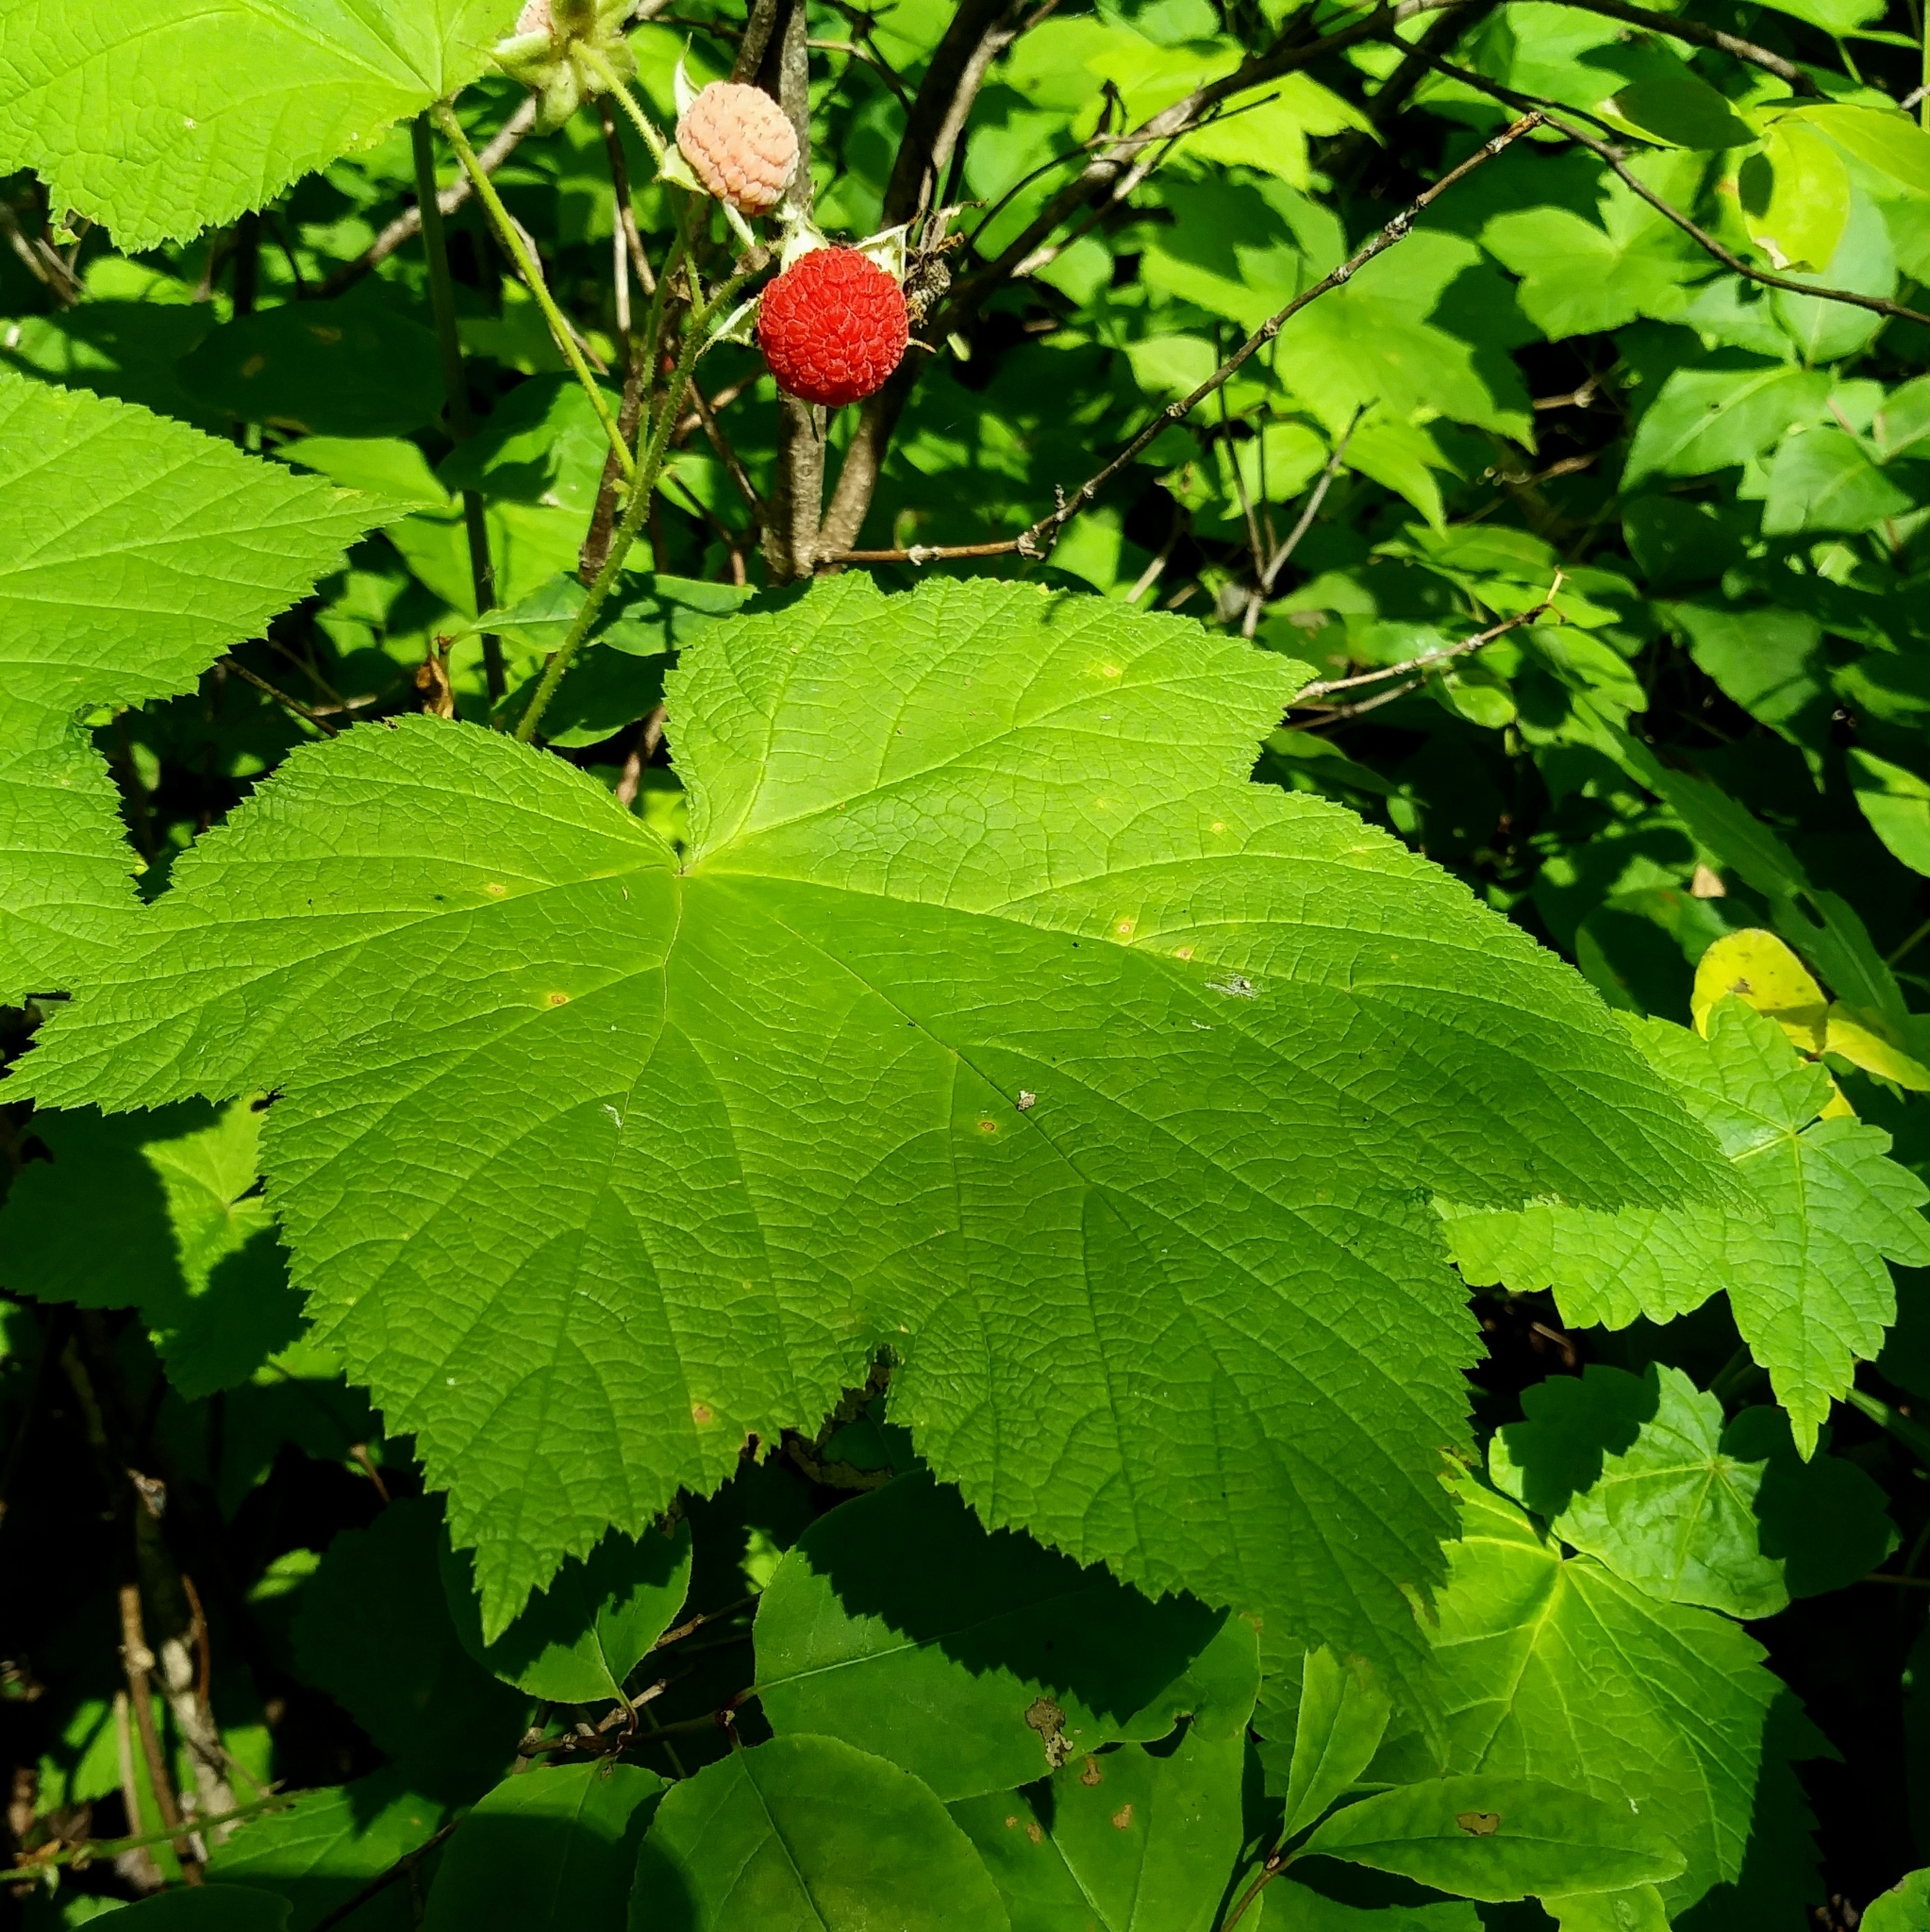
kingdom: Plantae
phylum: Tracheophyta
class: Magnoliopsida
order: Rosales
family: Rosaceae
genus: Rubus
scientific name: Rubus parviflorus
